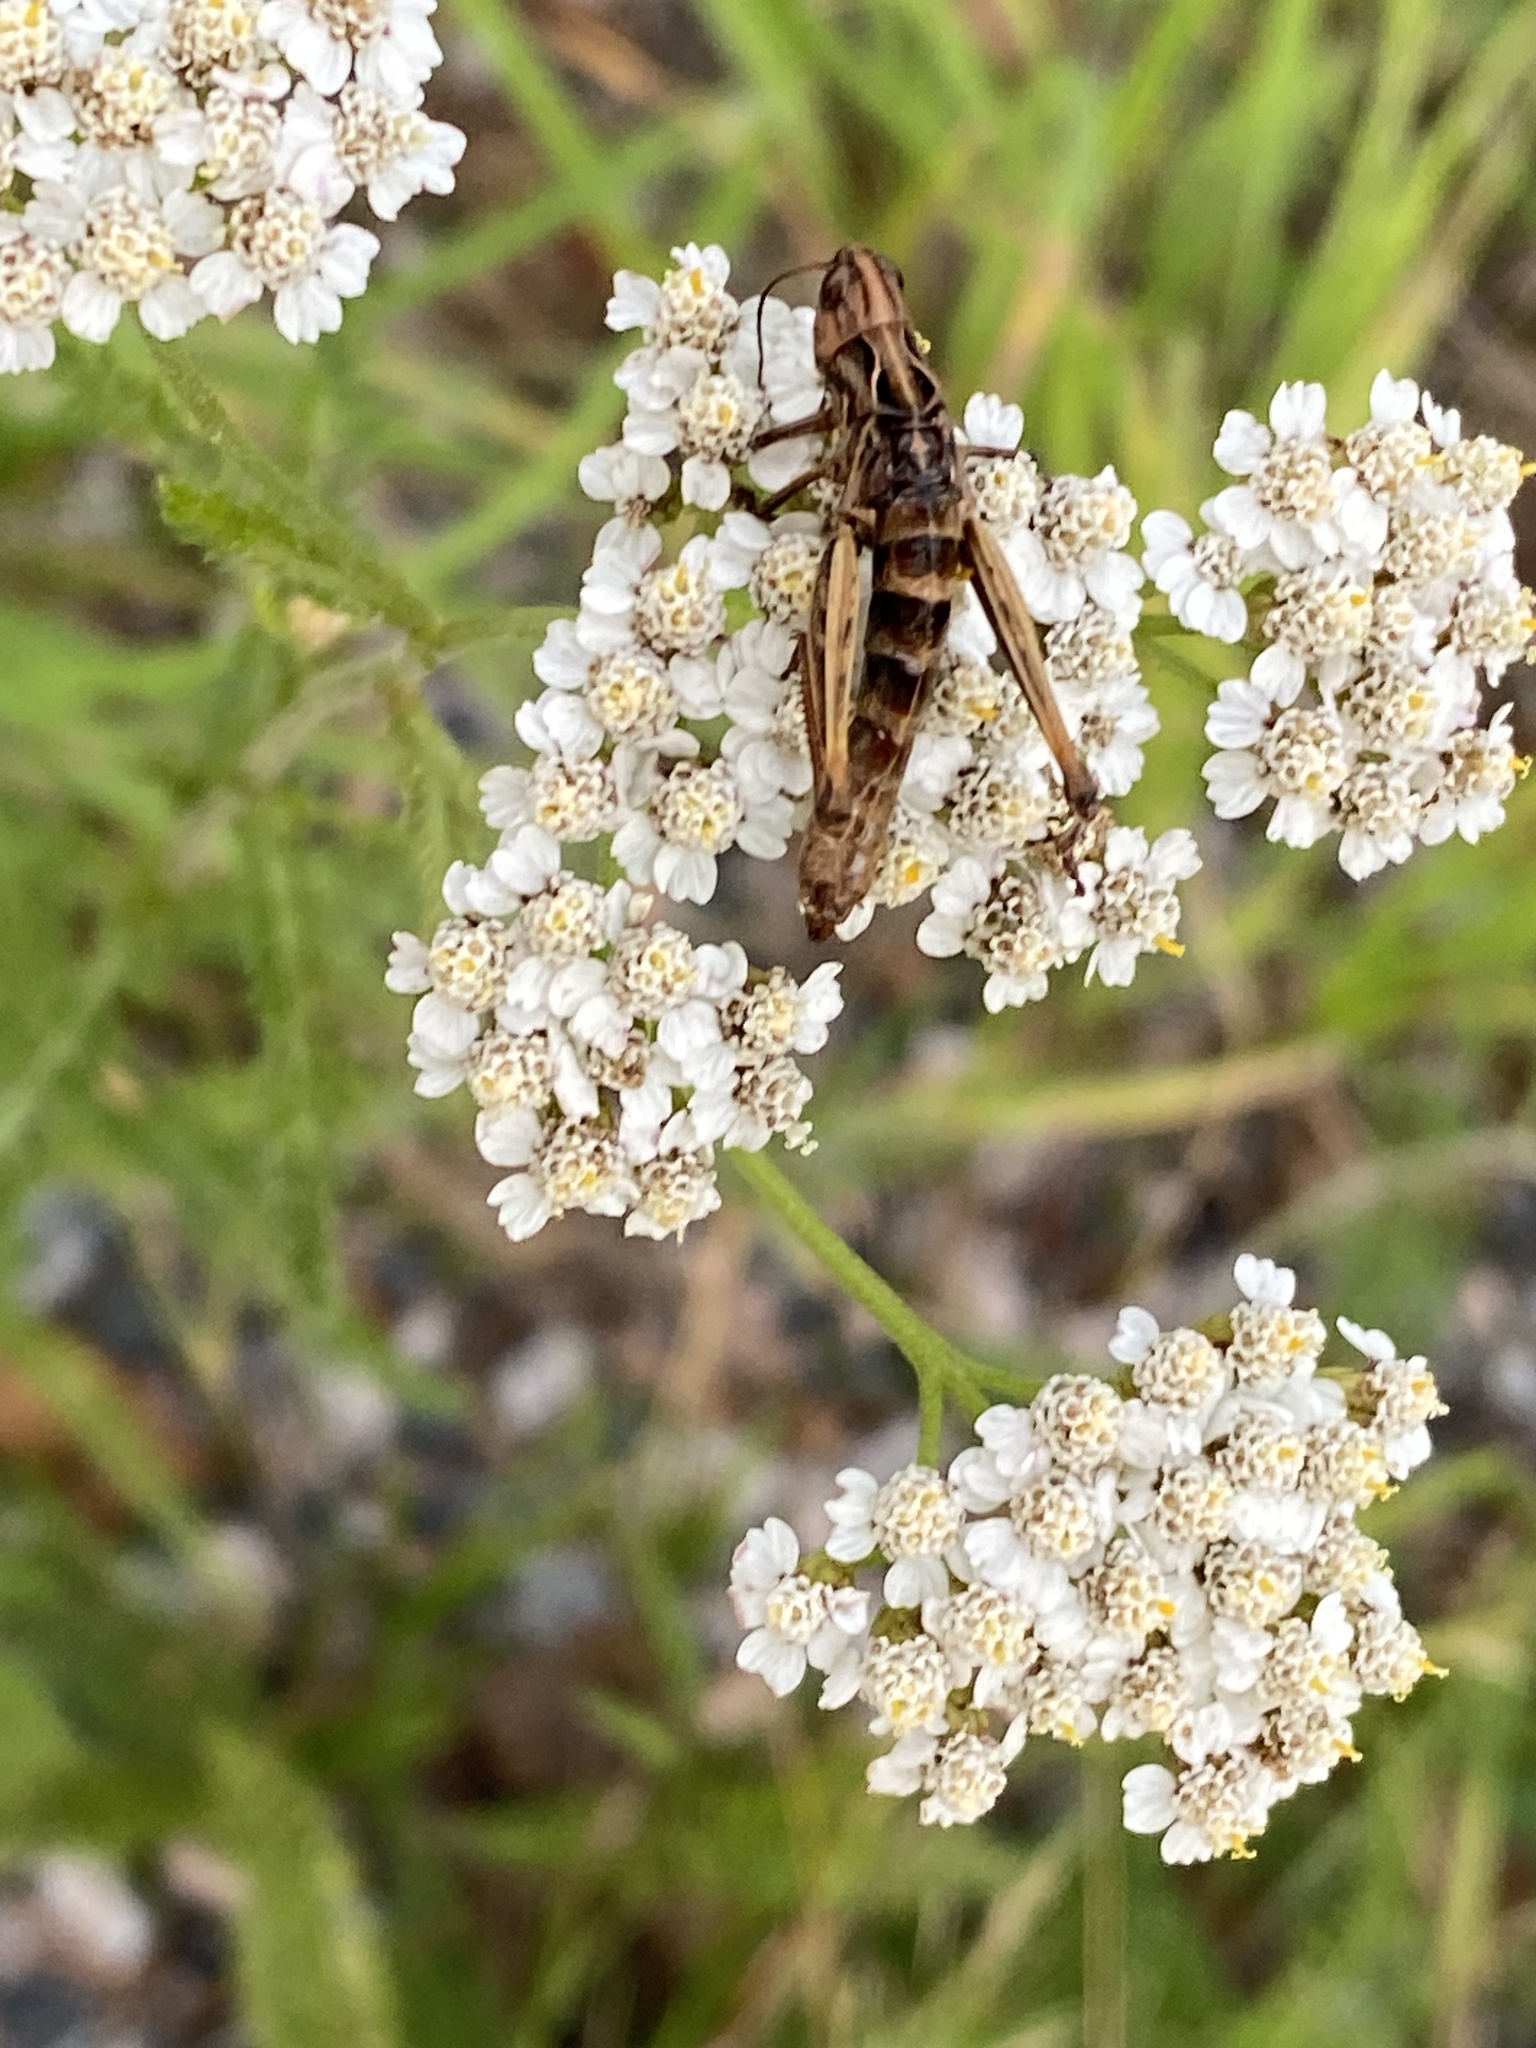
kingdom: Fungi
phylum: Entomophthoromycota
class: Entomophthoromycetes
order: Entomophthorales
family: Entomophthoraceae
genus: Entomophaga
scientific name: Entomophaga grylli
